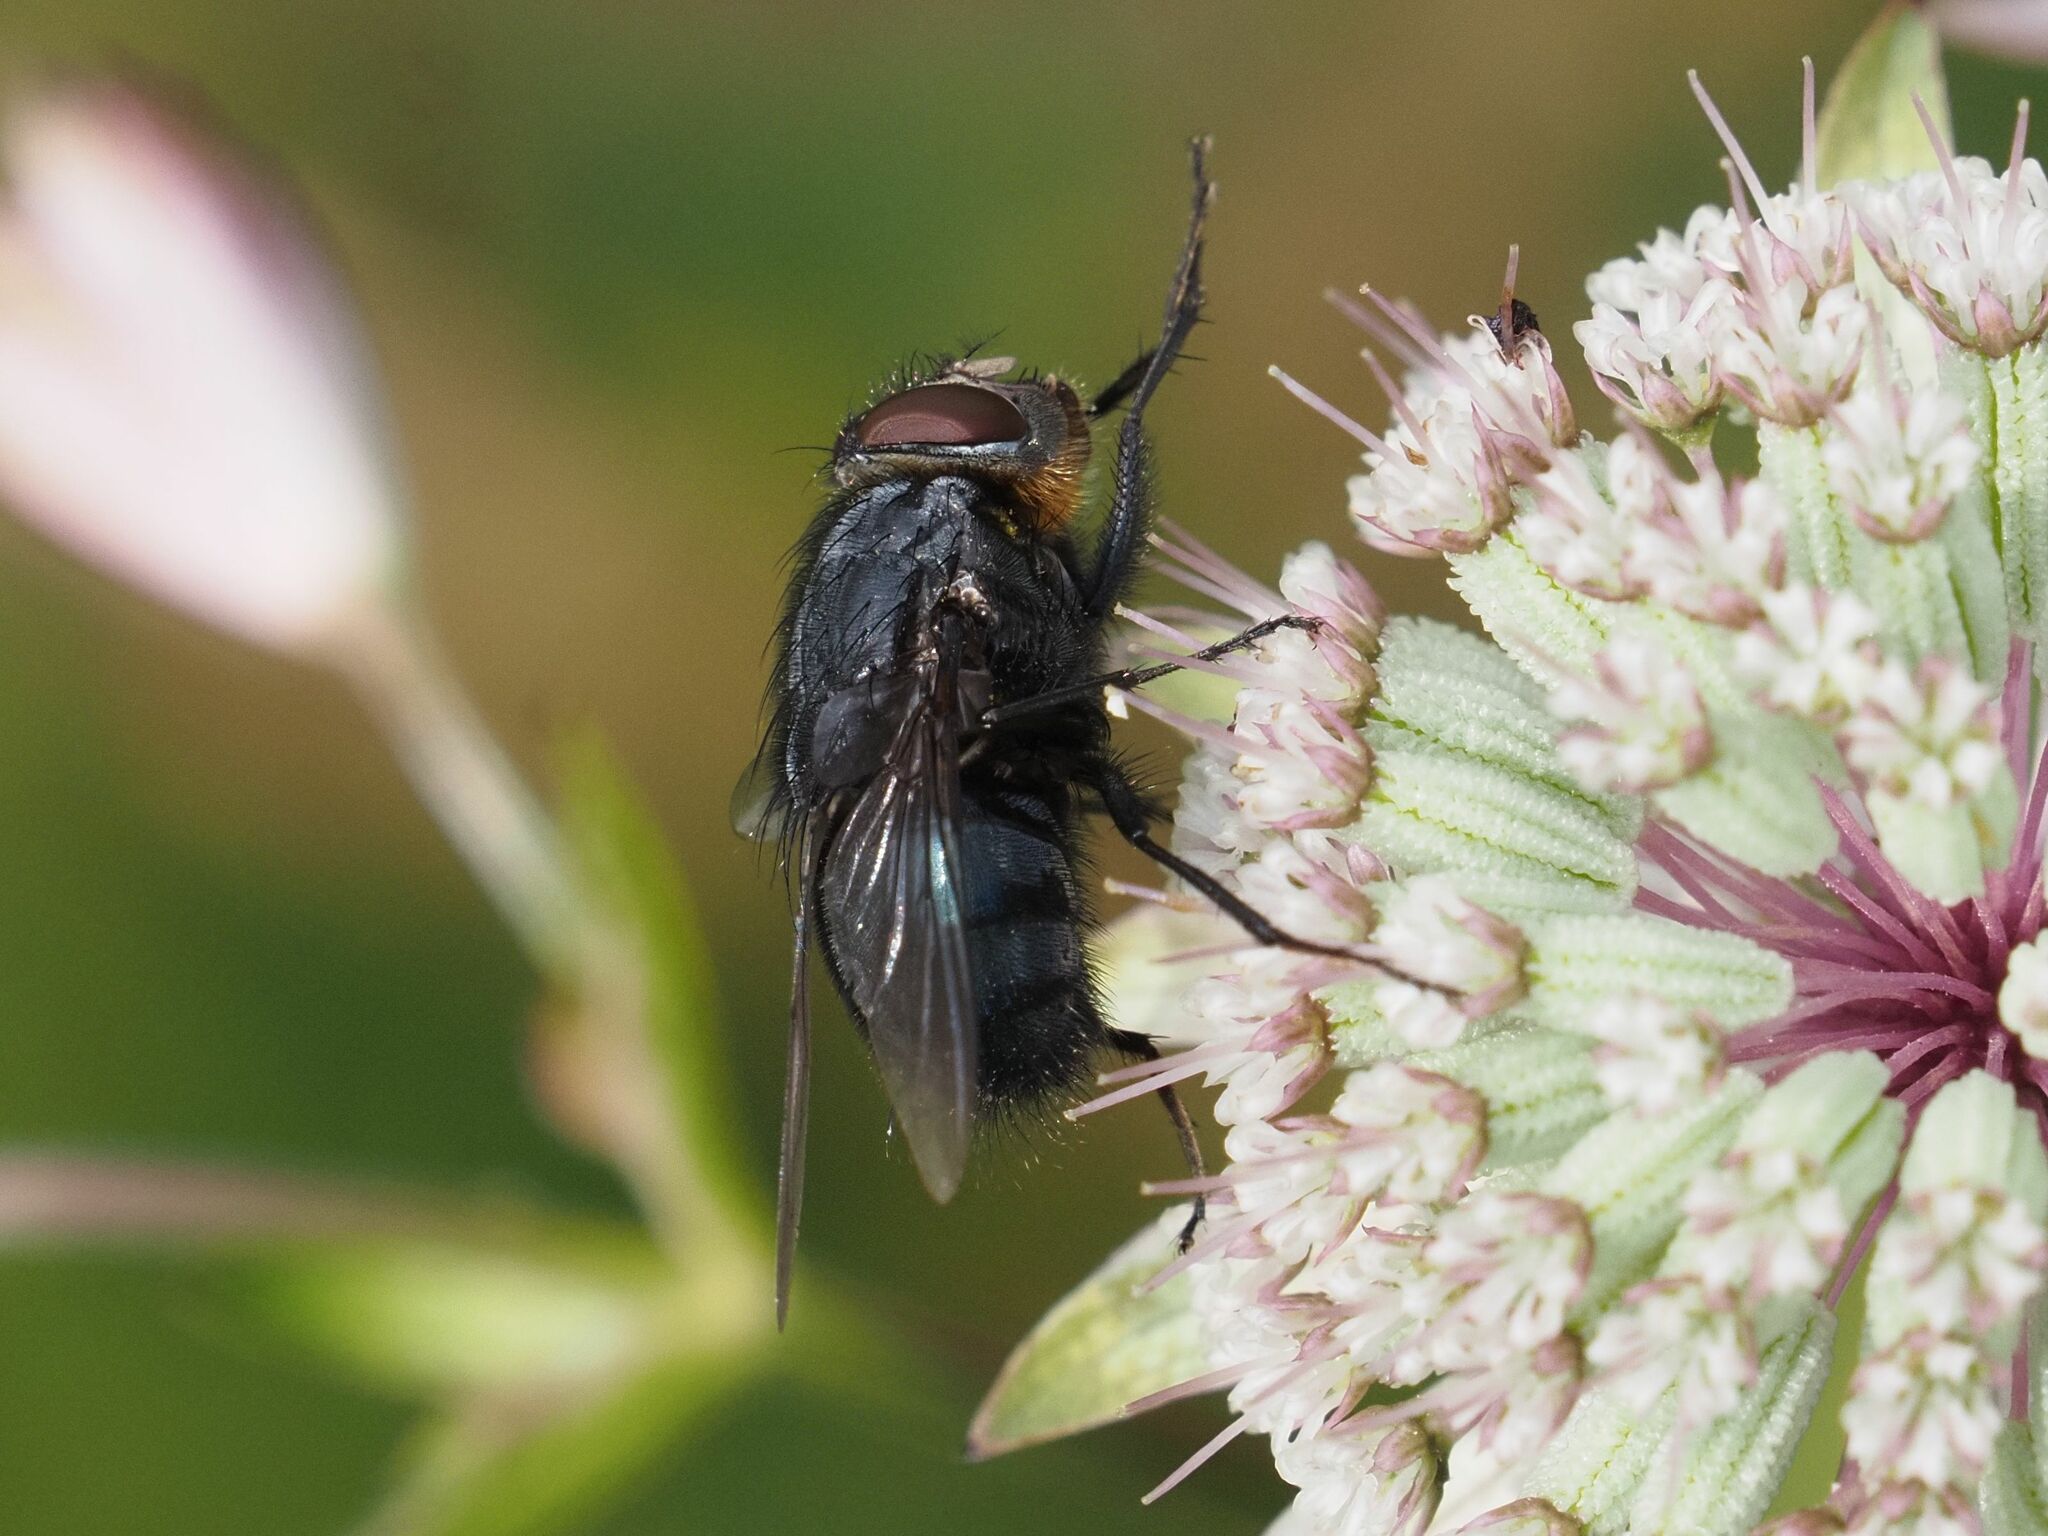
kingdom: Animalia
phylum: Arthropoda
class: Insecta
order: Diptera
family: Calliphoridae
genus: Calliphora
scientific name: Calliphora vomitoria
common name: Blue bottle fly
